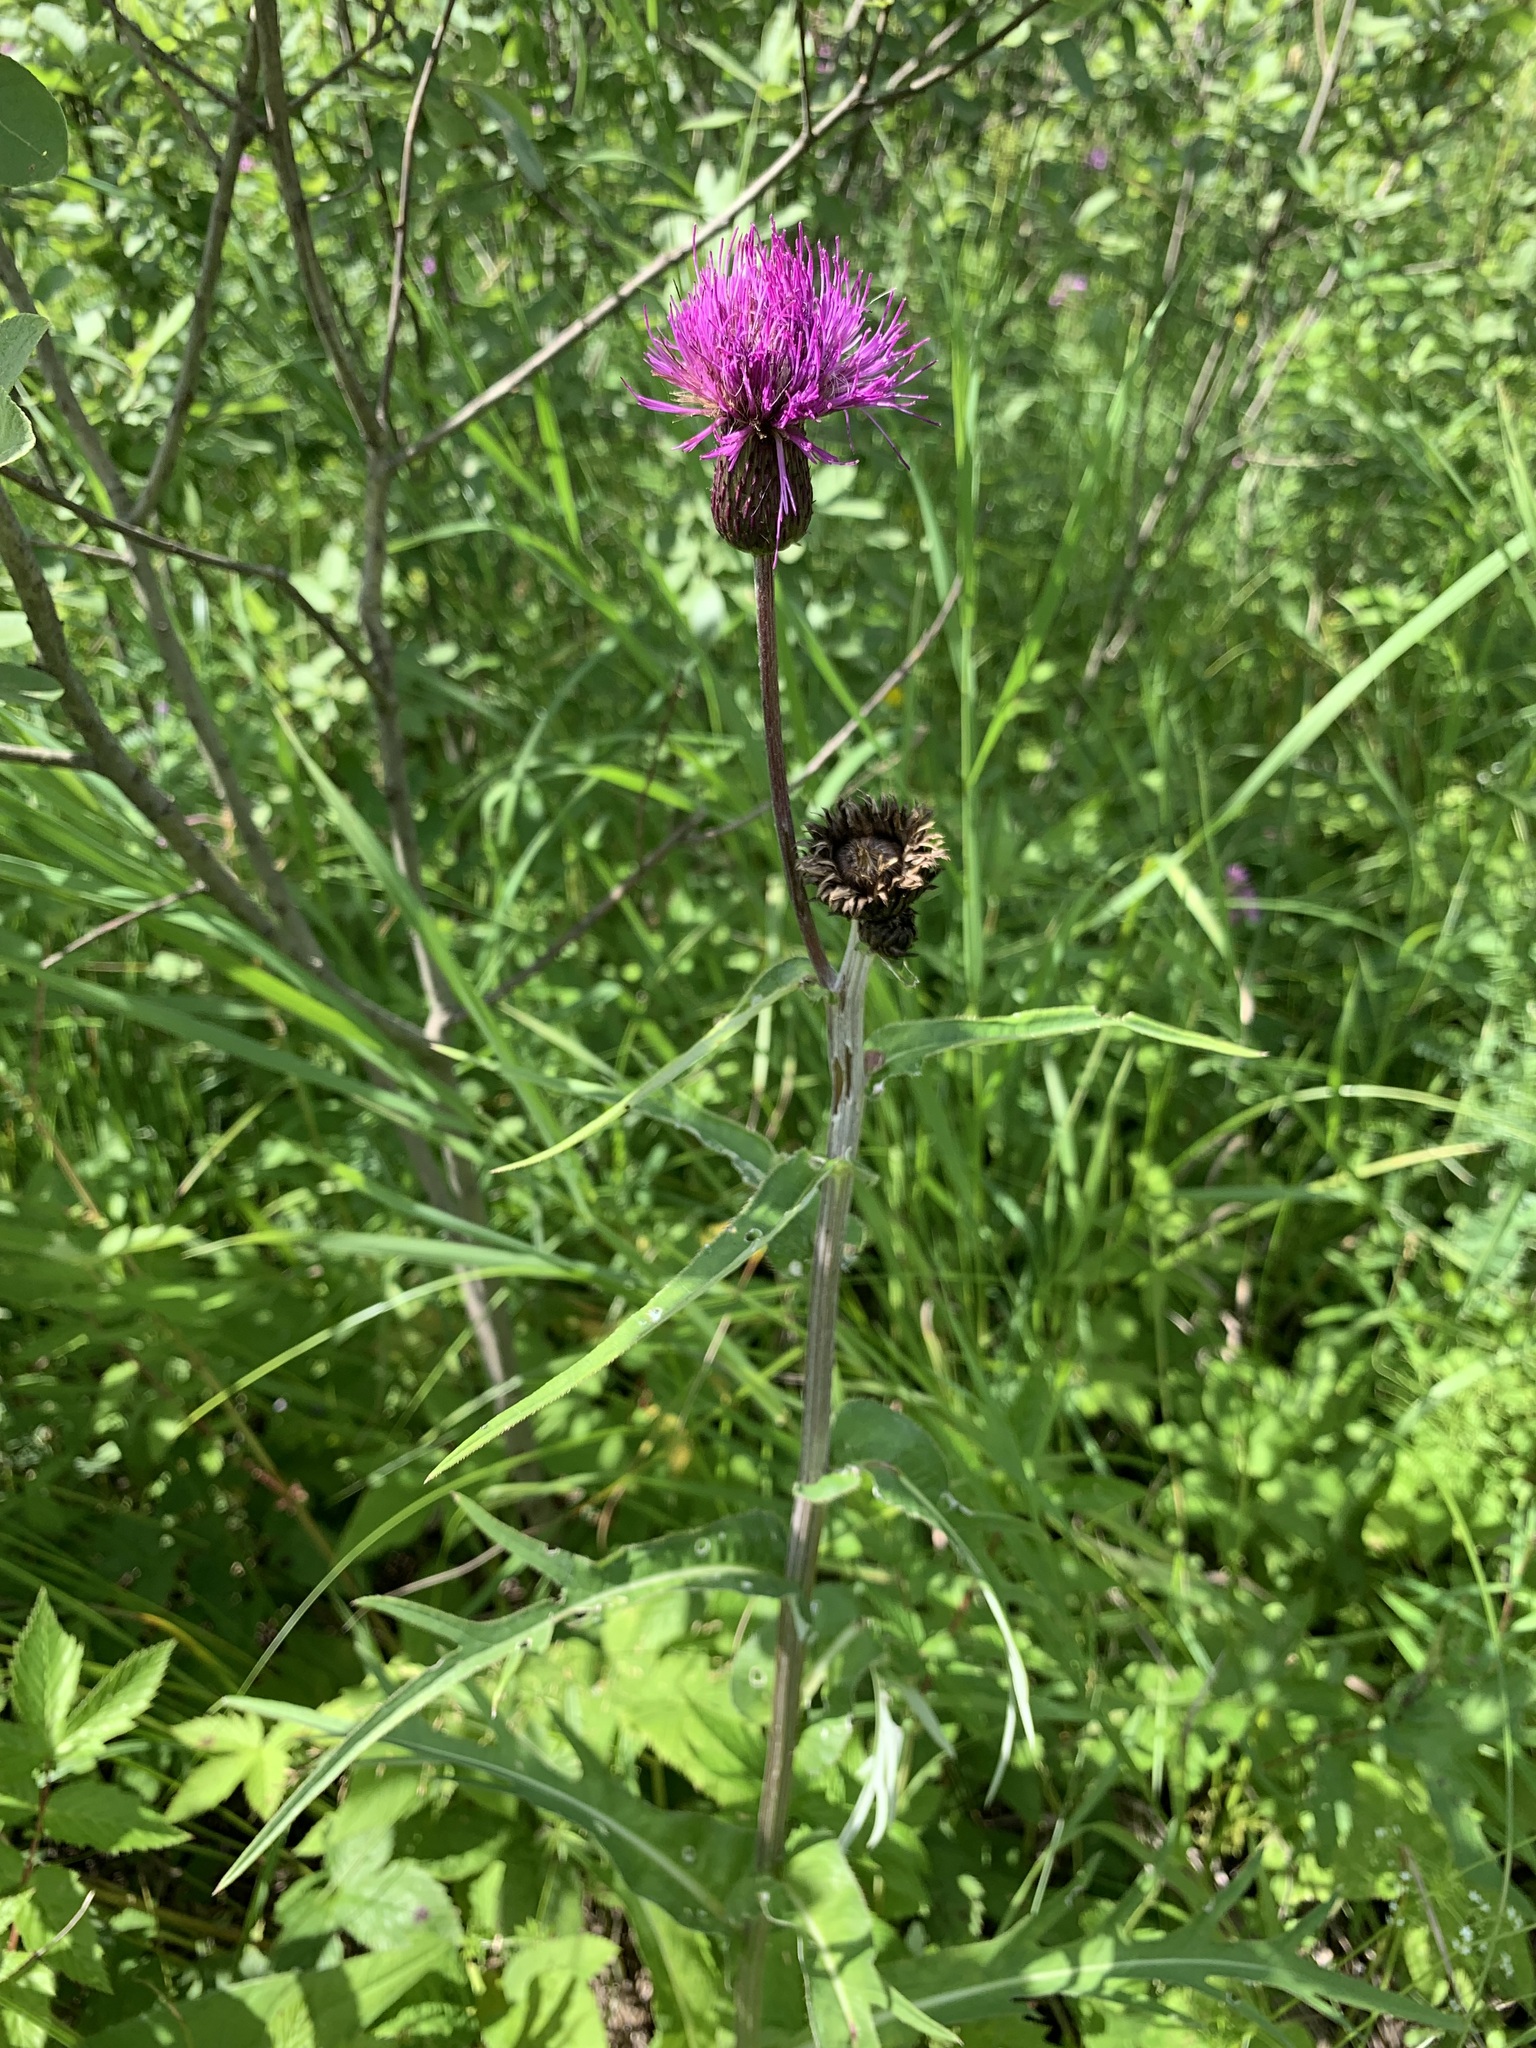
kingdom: Plantae
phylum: Tracheophyta
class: Magnoliopsida
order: Asterales
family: Asteraceae
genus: Cirsium
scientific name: Cirsium heterophyllum
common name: Melancholy thistle
